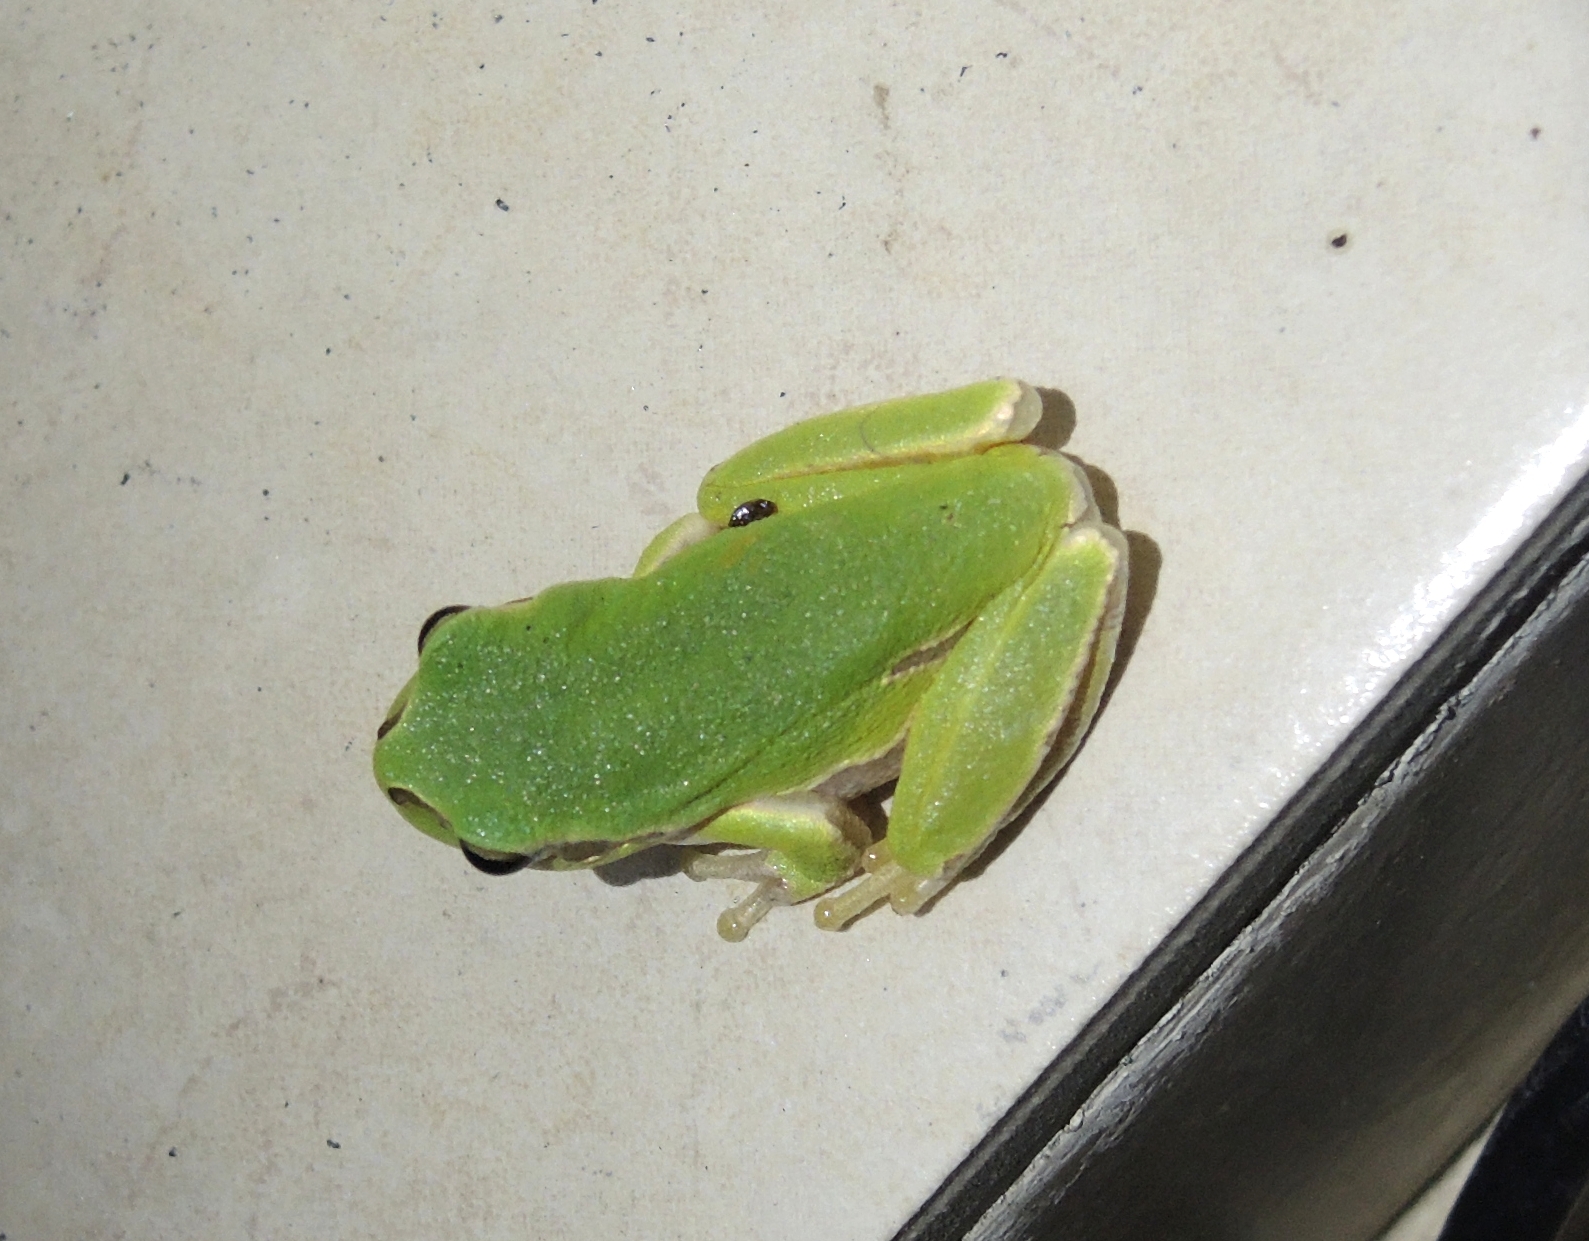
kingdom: Animalia
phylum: Chordata
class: Amphibia
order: Anura
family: Hylidae
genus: Hyla
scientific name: Hyla orientalis
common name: Caucasian treefrog
